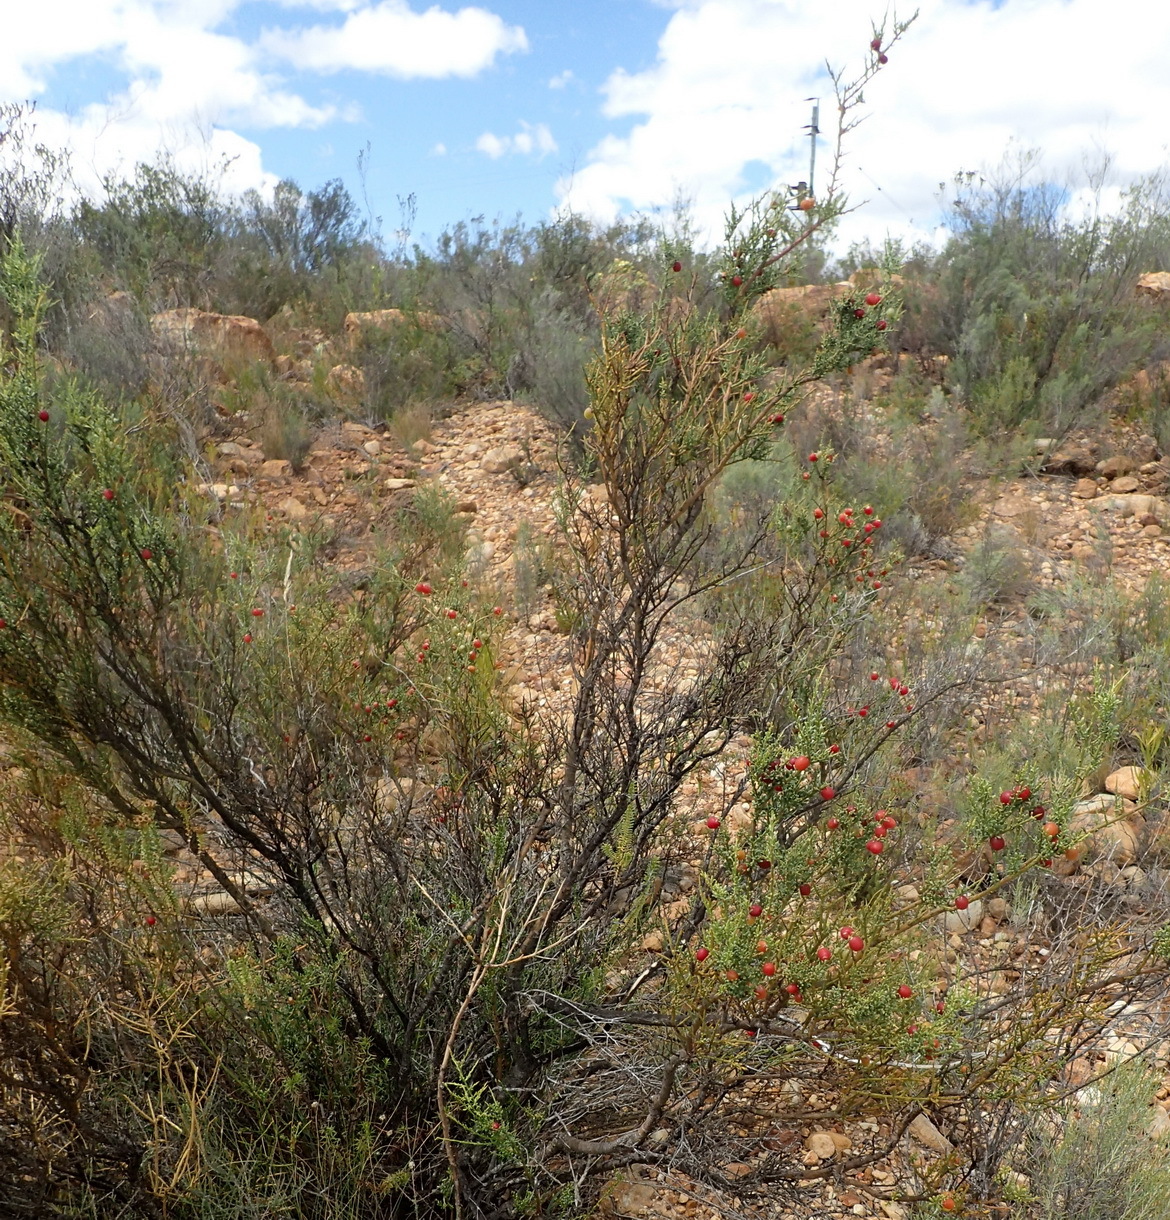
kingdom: Plantae
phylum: Tracheophyta
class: Magnoliopsida
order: Fabales
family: Polygalaceae
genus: Muraltia
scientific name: Muraltia spinosa
